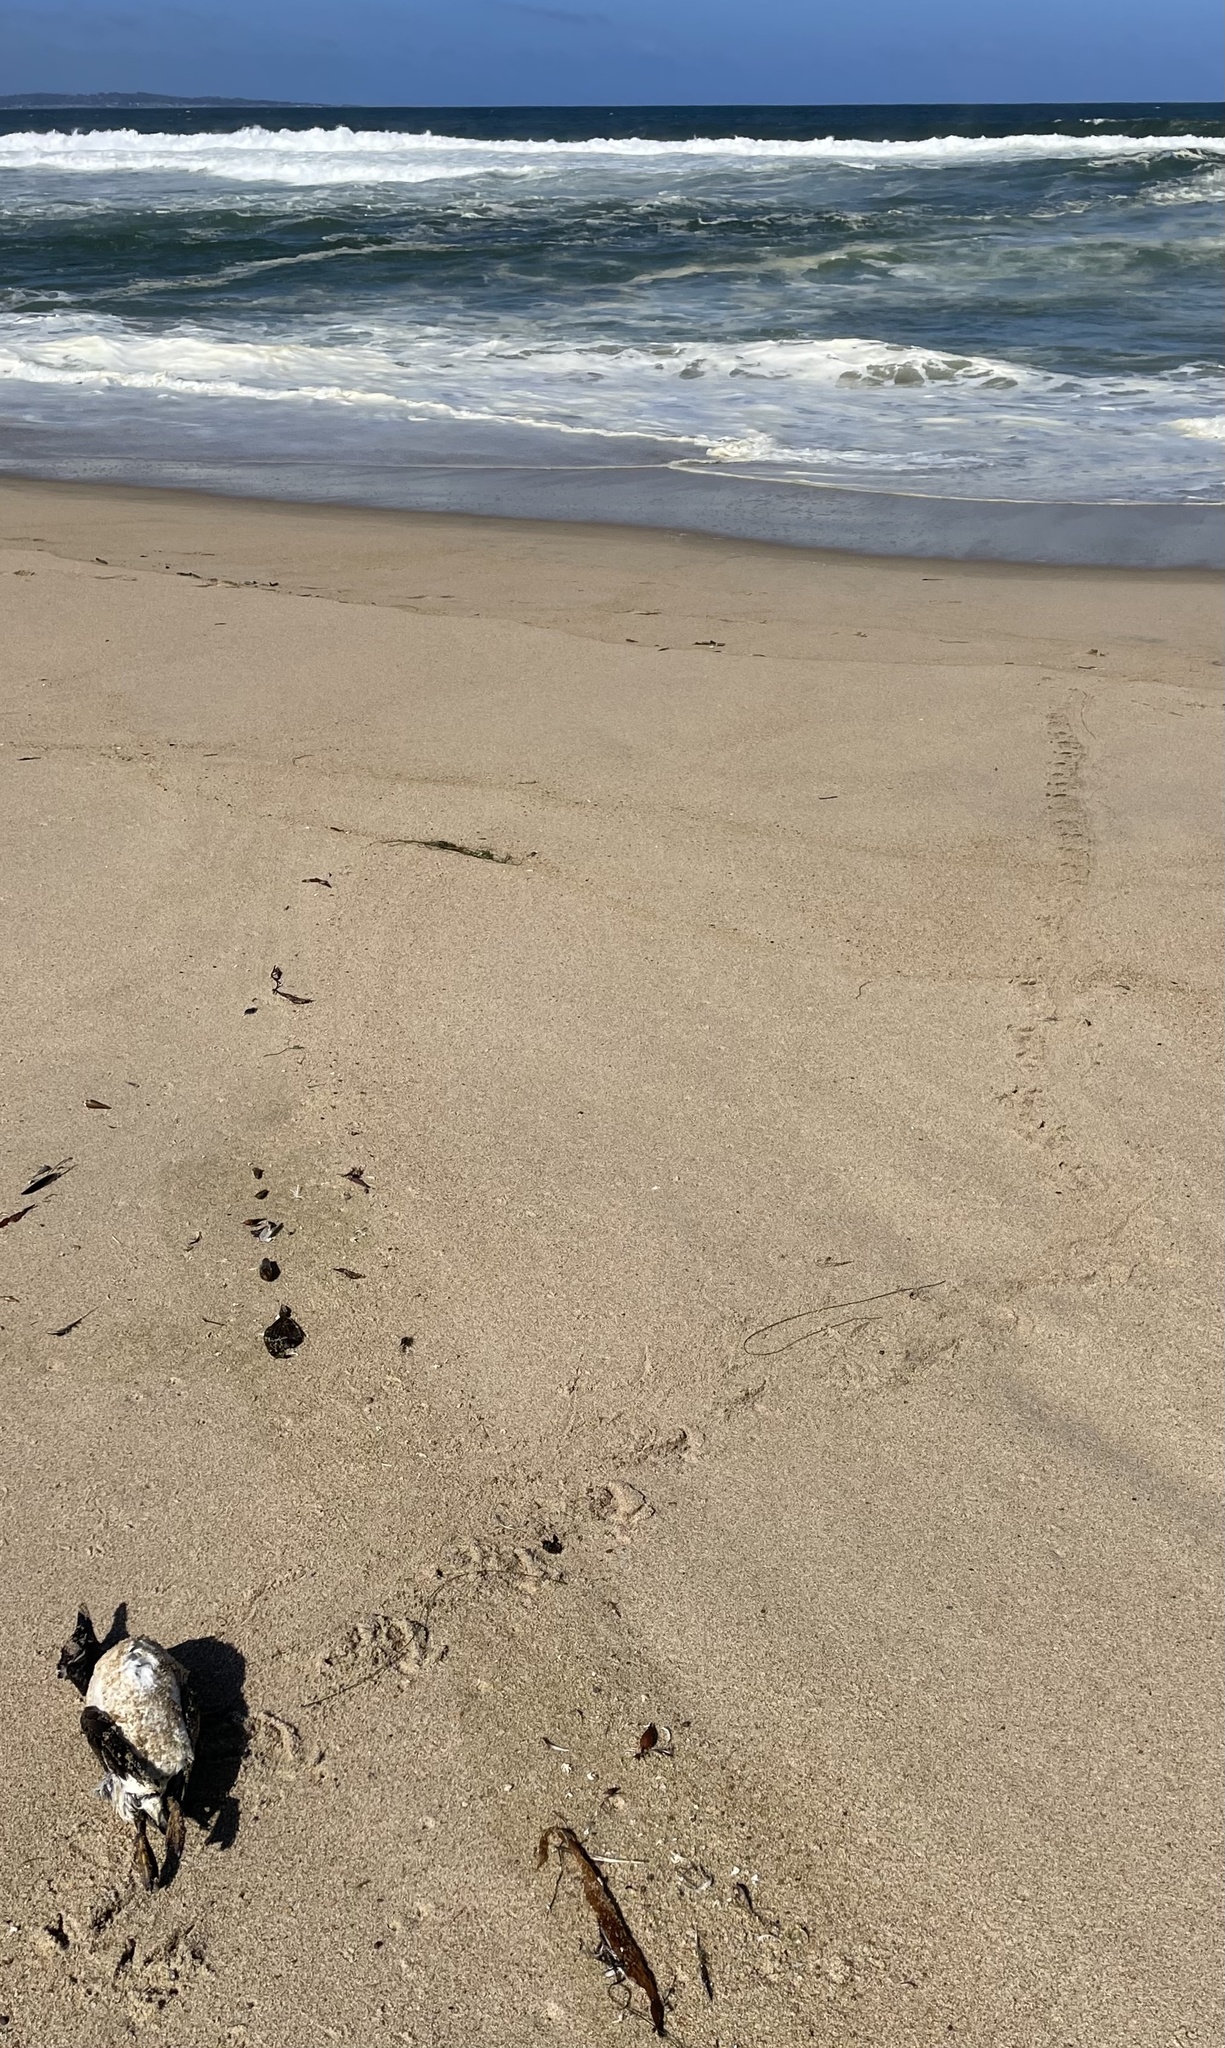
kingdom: Animalia
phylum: Chordata
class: Aves
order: Charadriiformes
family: Alcidae
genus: Uria
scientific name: Uria aalge
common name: Common murre
